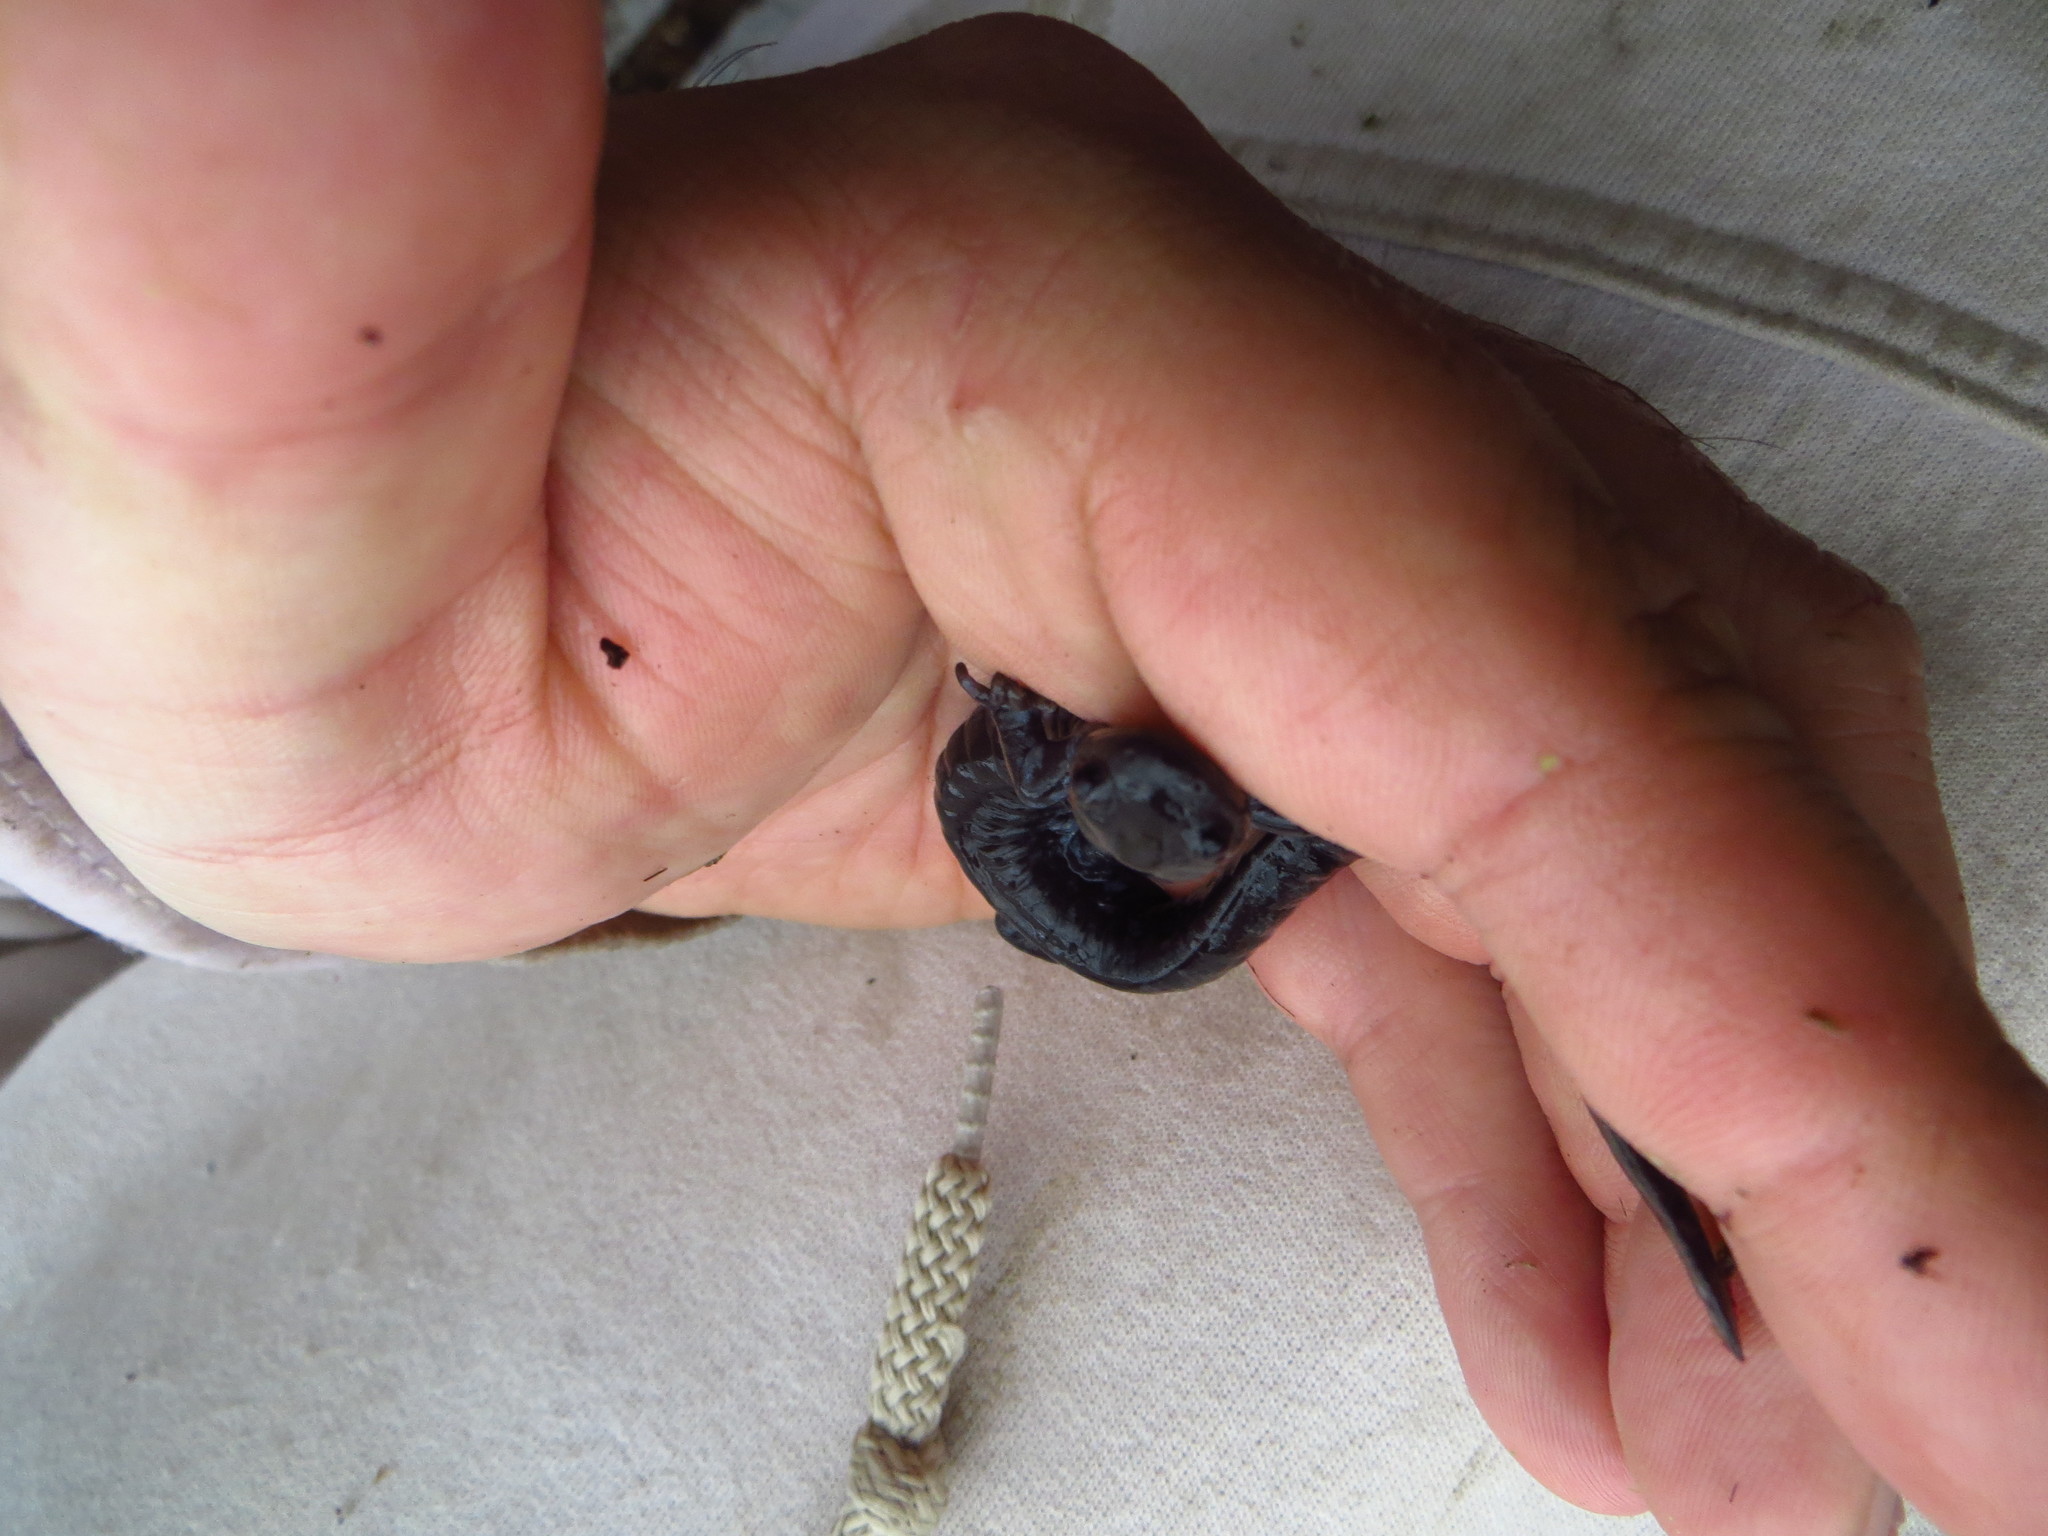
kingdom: Animalia
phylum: Chordata
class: Amphibia
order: Caudata
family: Ambystomatidae
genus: Ambystoma
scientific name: Ambystoma unisexual
